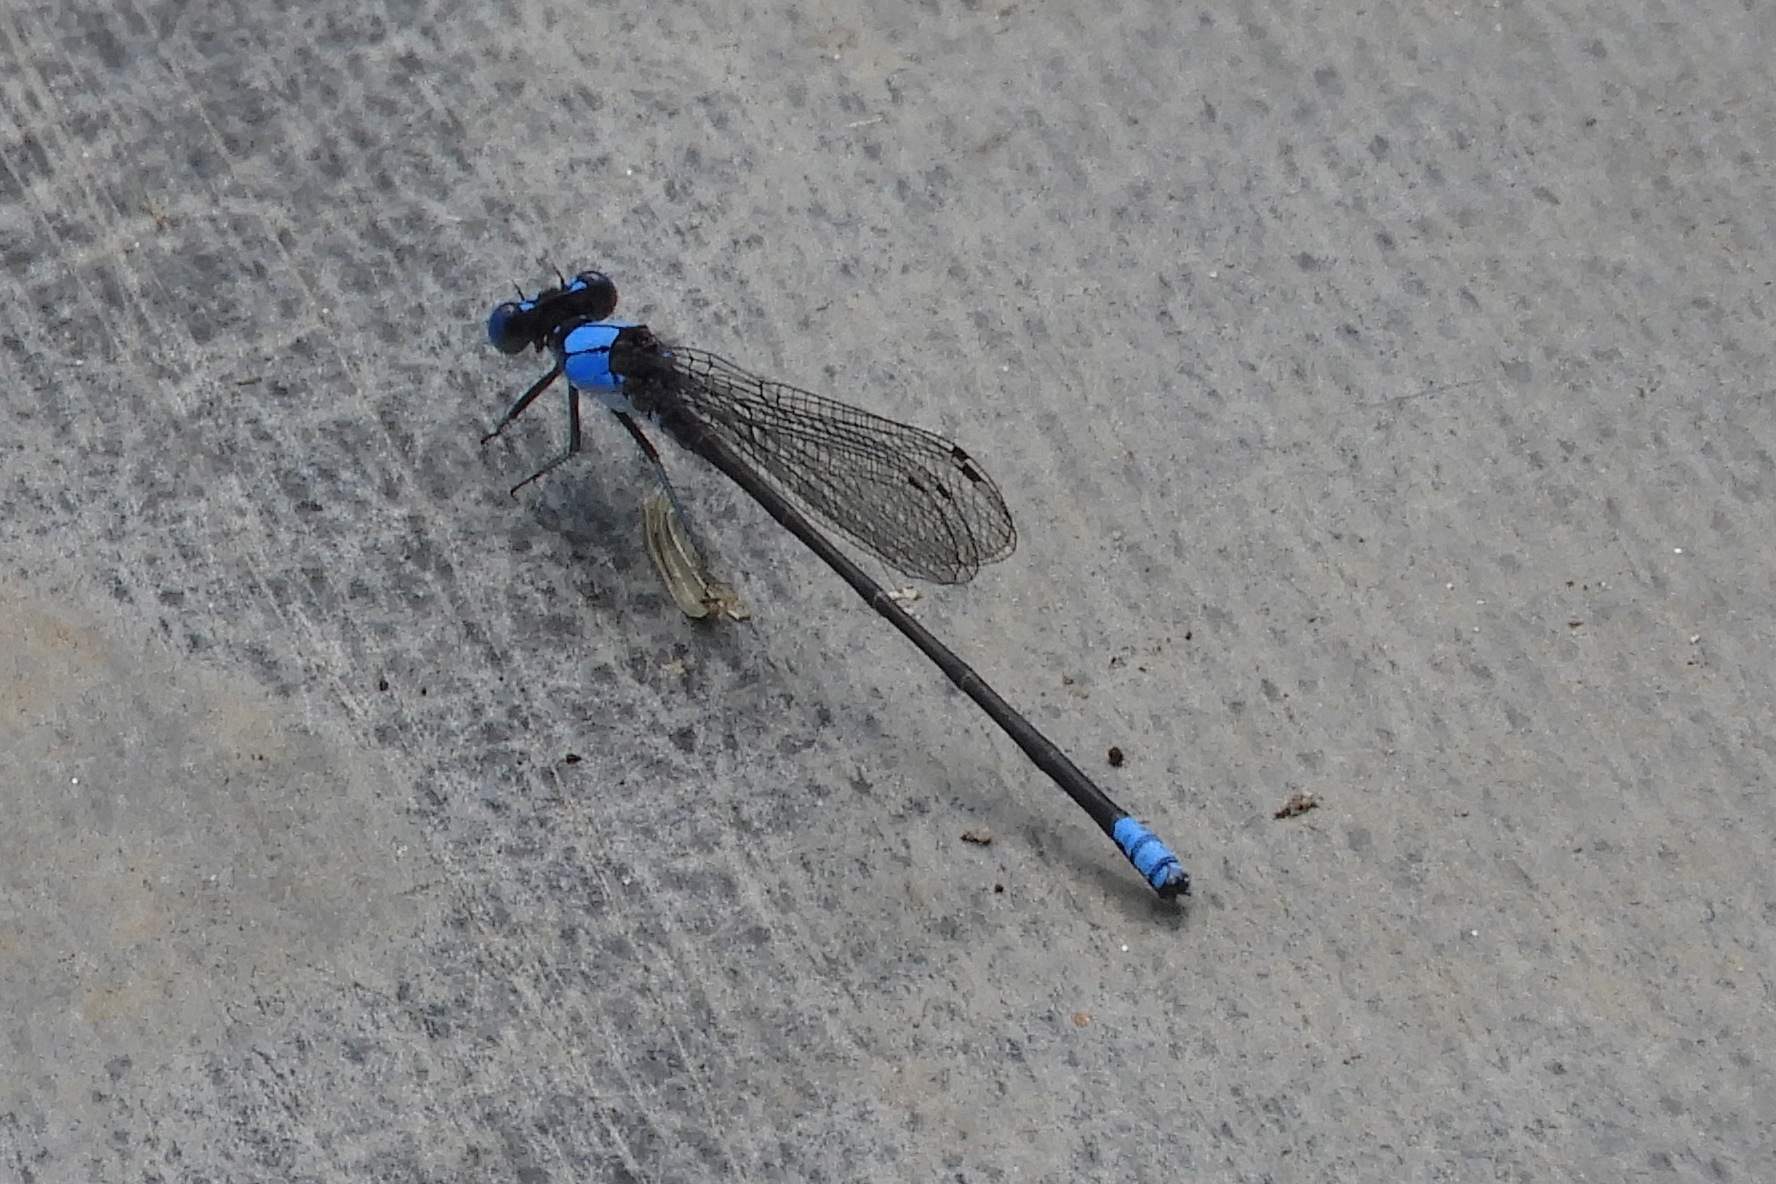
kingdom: Animalia
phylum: Arthropoda
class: Insecta
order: Odonata
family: Coenagrionidae
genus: Argia
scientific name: Argia apicalis
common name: Blue-fronted dancer
